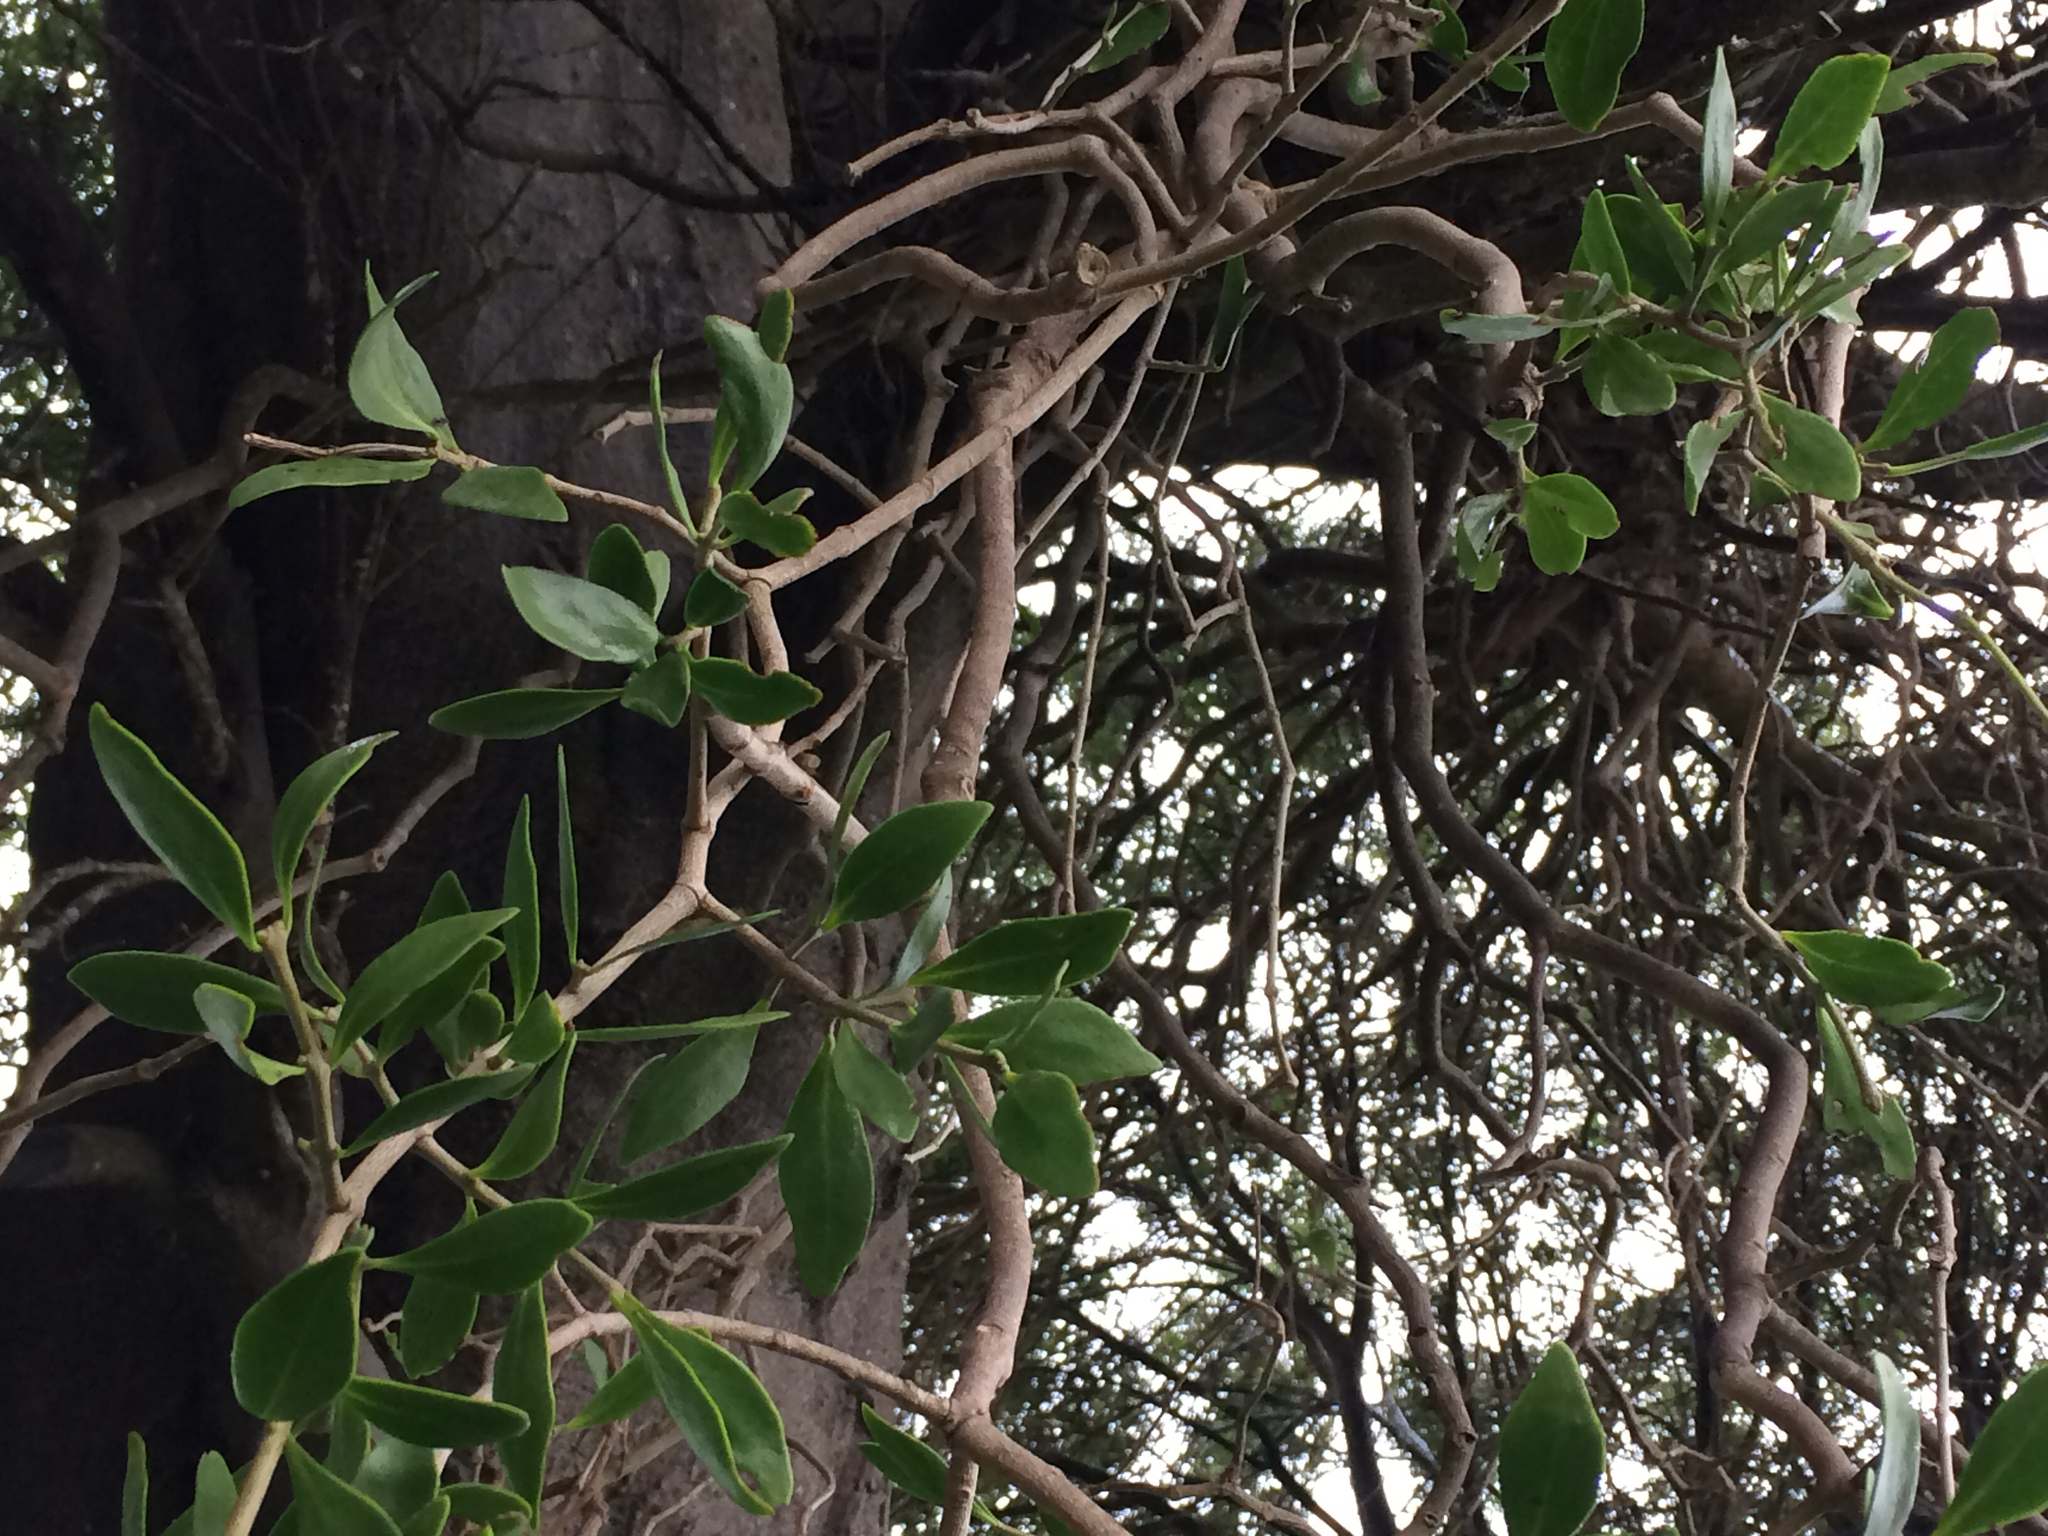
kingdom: Plantae
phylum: Tracheophyta
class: Magnoliopsida
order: Santalales
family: Loranthaceae
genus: Tupeia
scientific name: Tupeia antarctica
